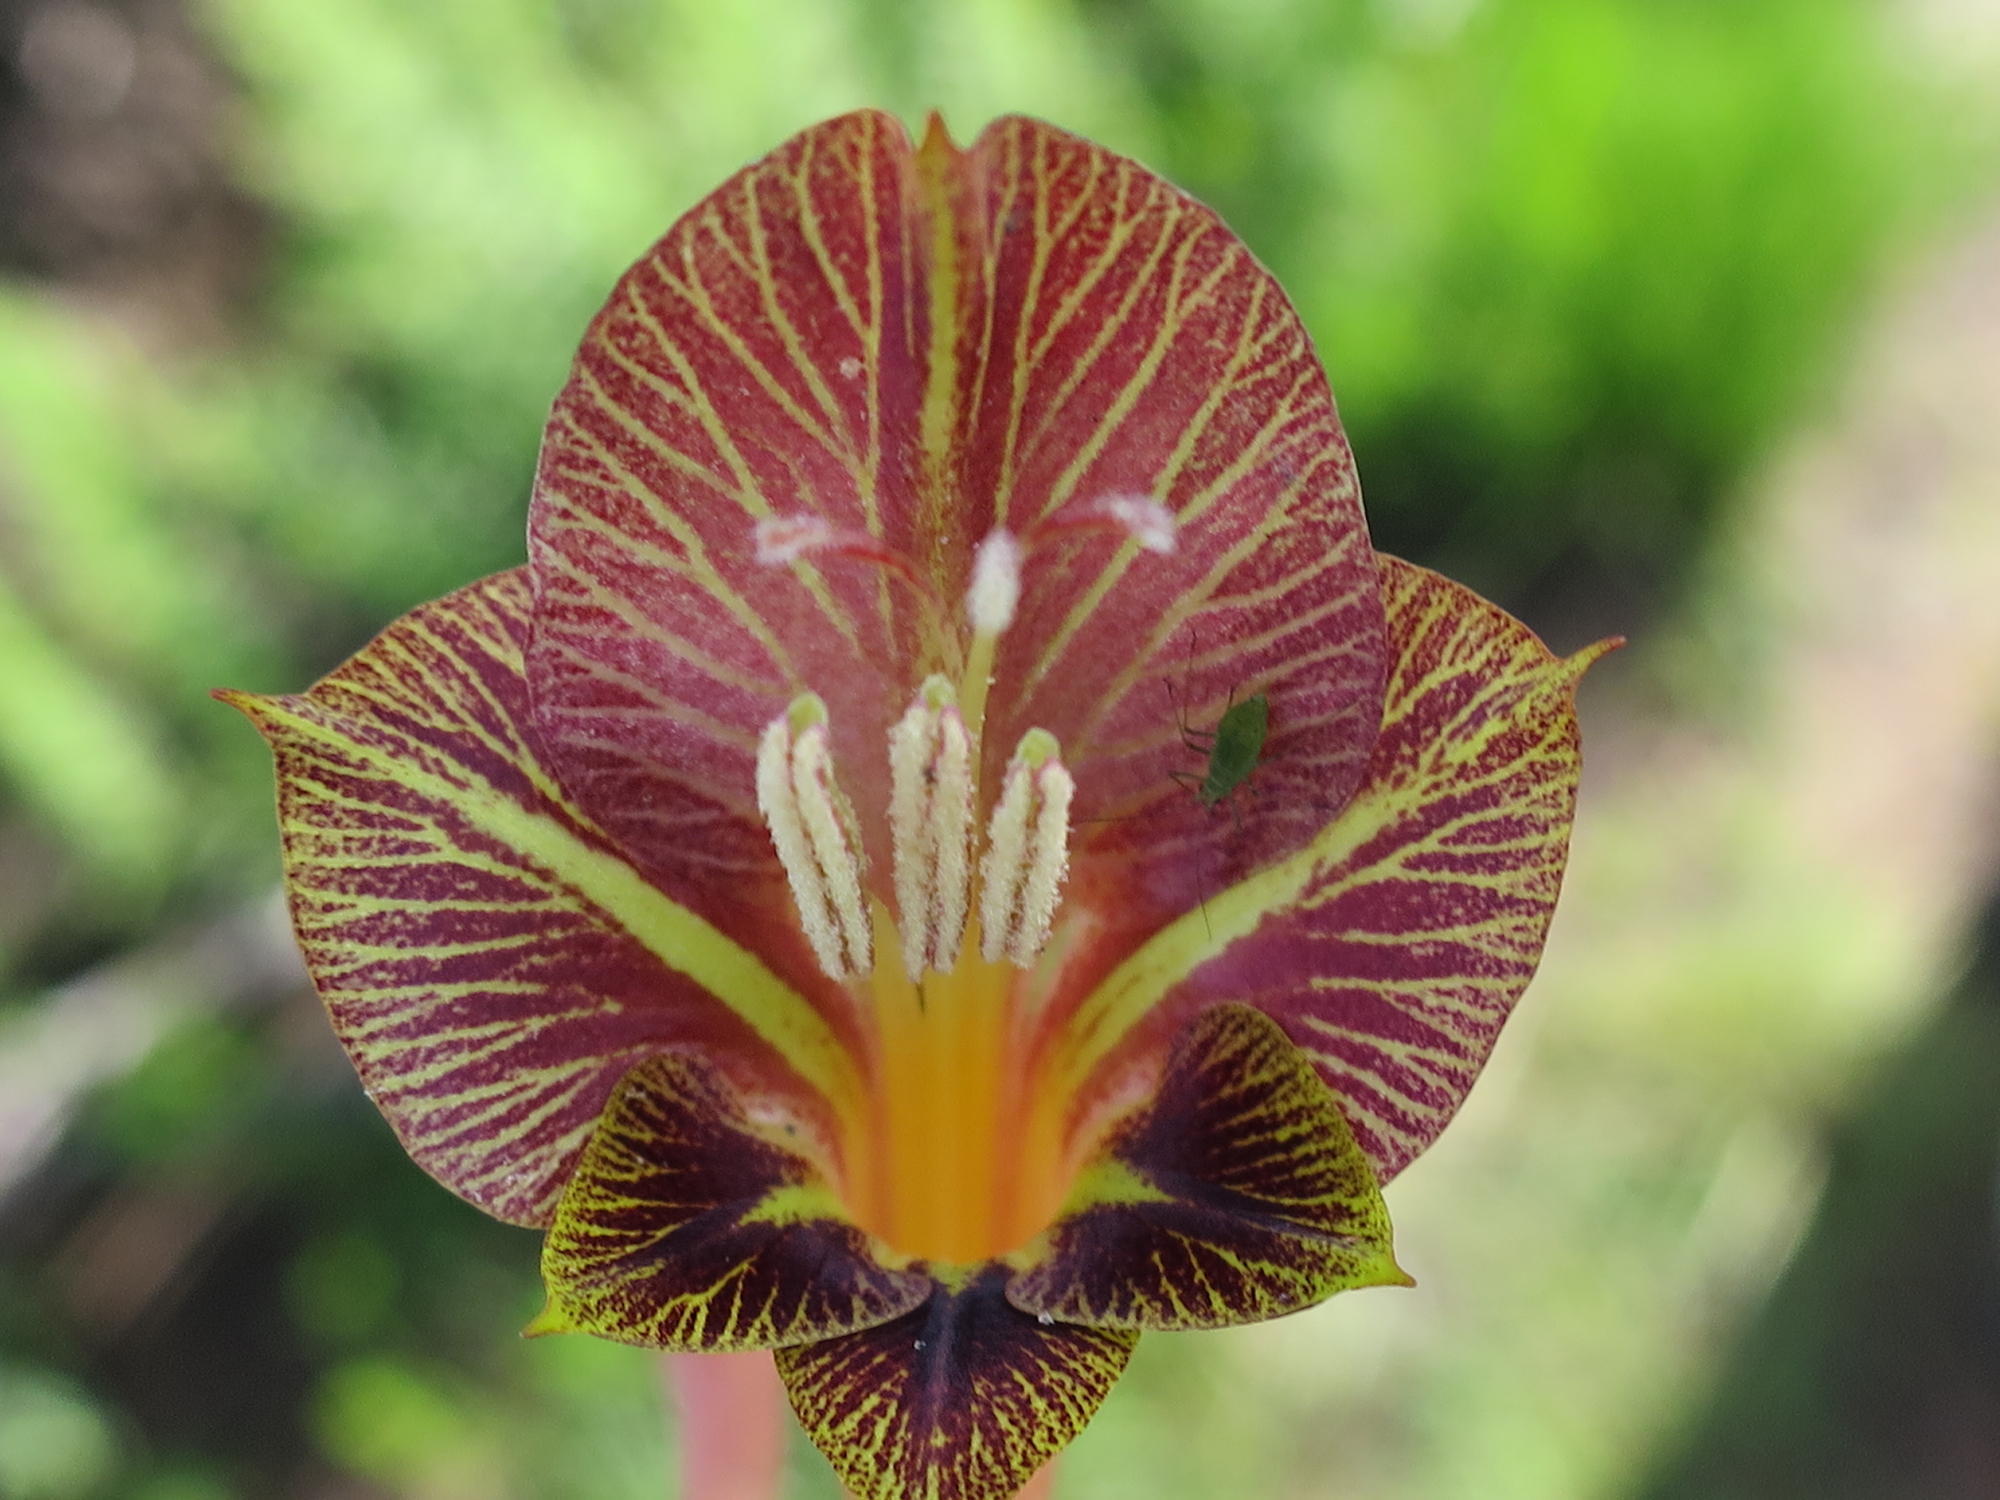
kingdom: Plantae
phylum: Tracheophyta
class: Liliopsida
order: Asparagales
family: Iridaceae
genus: Gladiolus
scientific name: Gladiolus fourcadei
